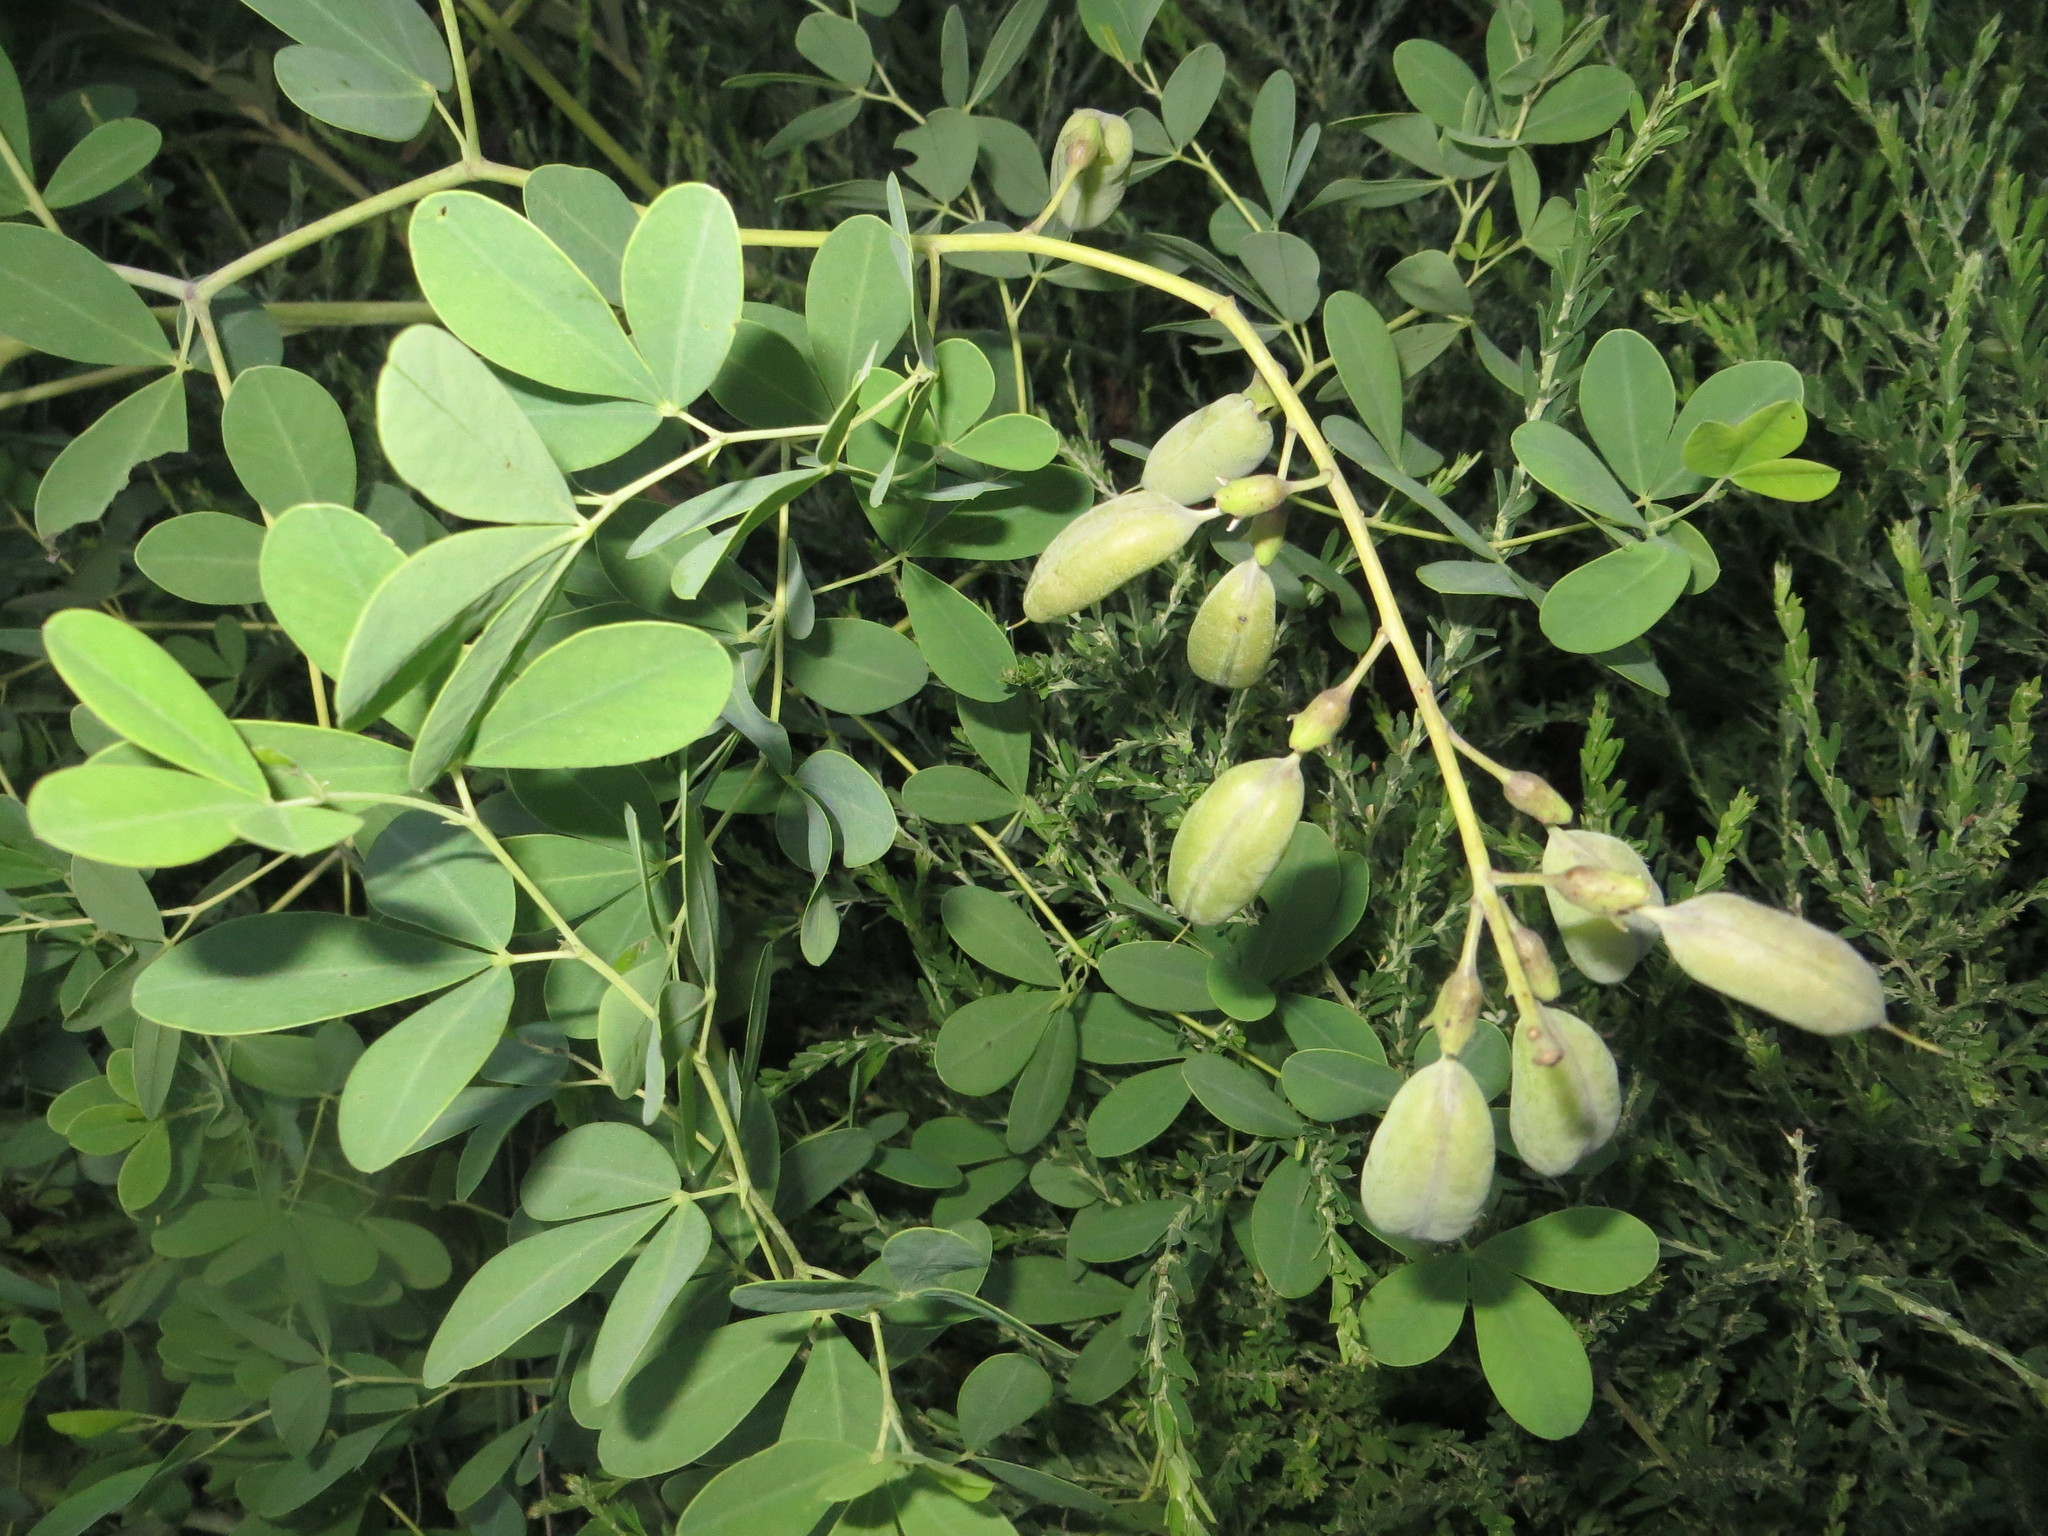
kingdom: Plantae
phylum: Tracheophyta
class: Magnoliopsida
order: Fabales
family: Fabaceae
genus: Baptisia
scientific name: Baptisia alba
